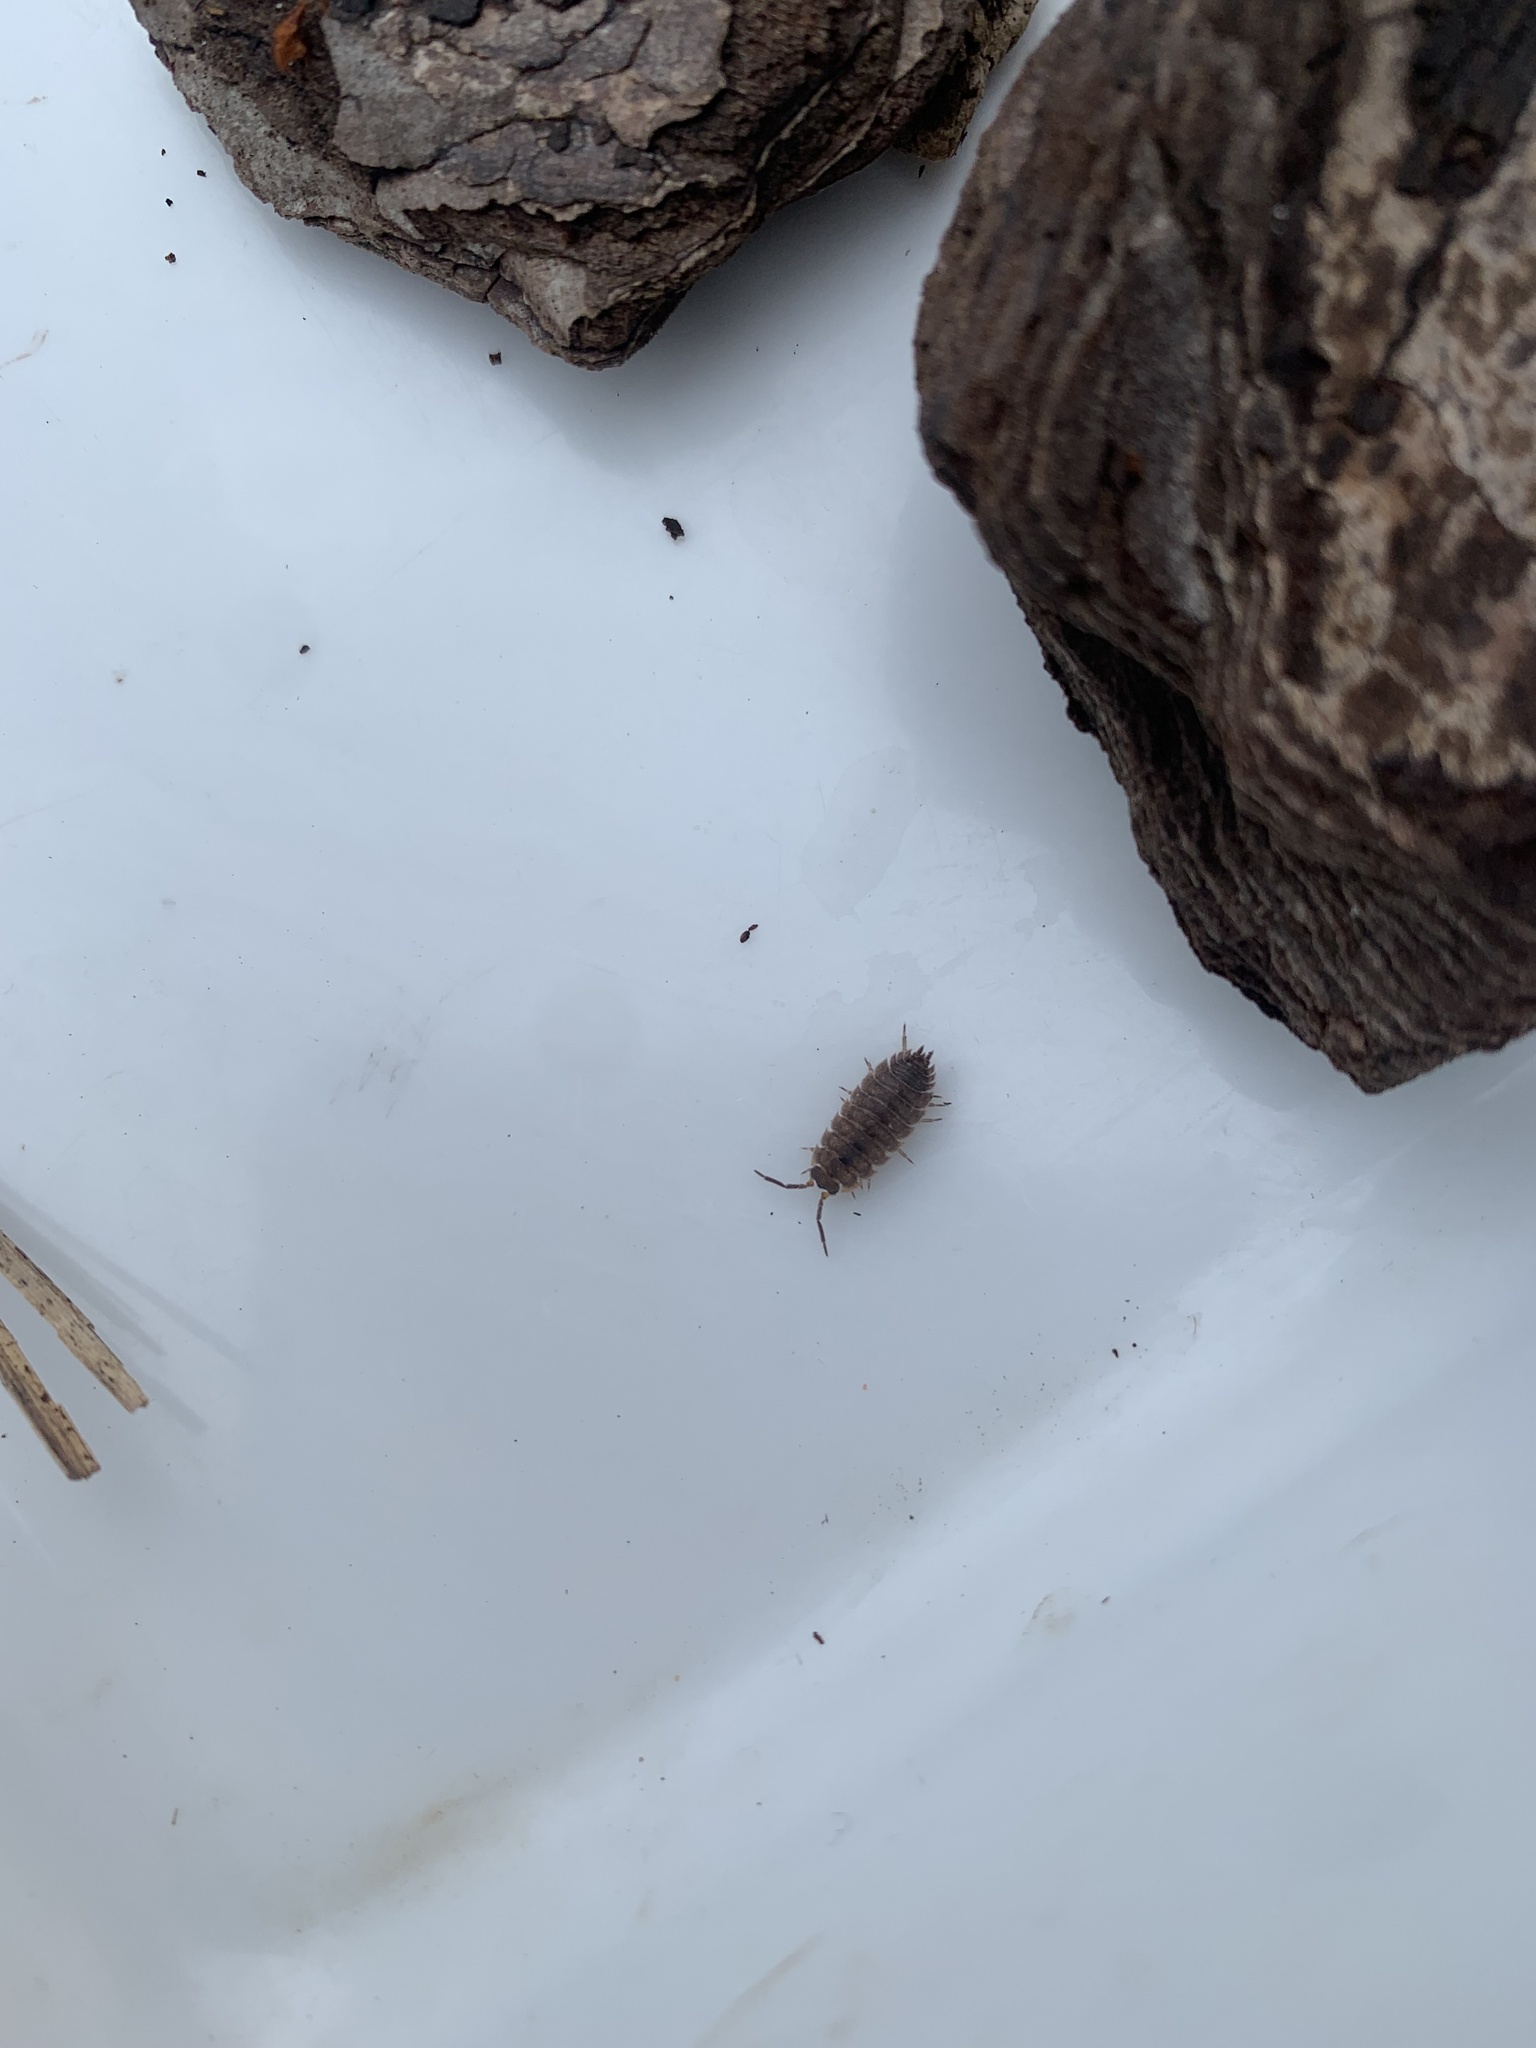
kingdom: Animalia
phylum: Arthropoda
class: Malacostraca
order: Isopoda
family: Porcellionidae
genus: Porcellio
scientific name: Porcellio scaber
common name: Common rough woodlouse
